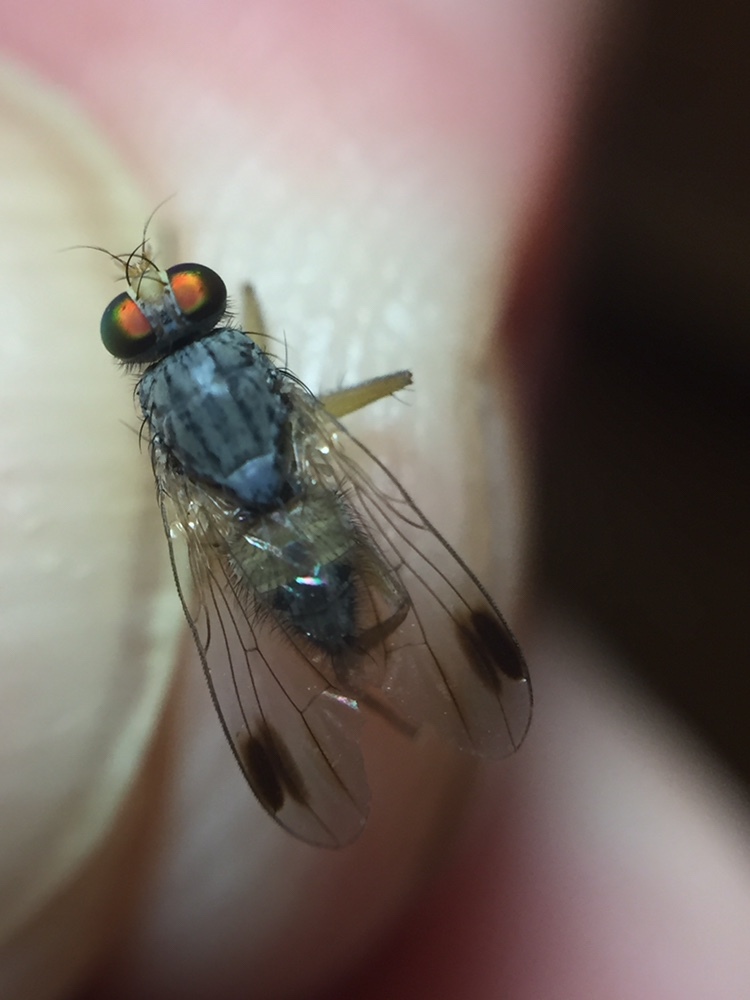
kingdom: Animalia
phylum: Arthropoda
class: Insecta
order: Diptera
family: Muscidae
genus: Pygophora
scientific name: Pygophora apicalis
